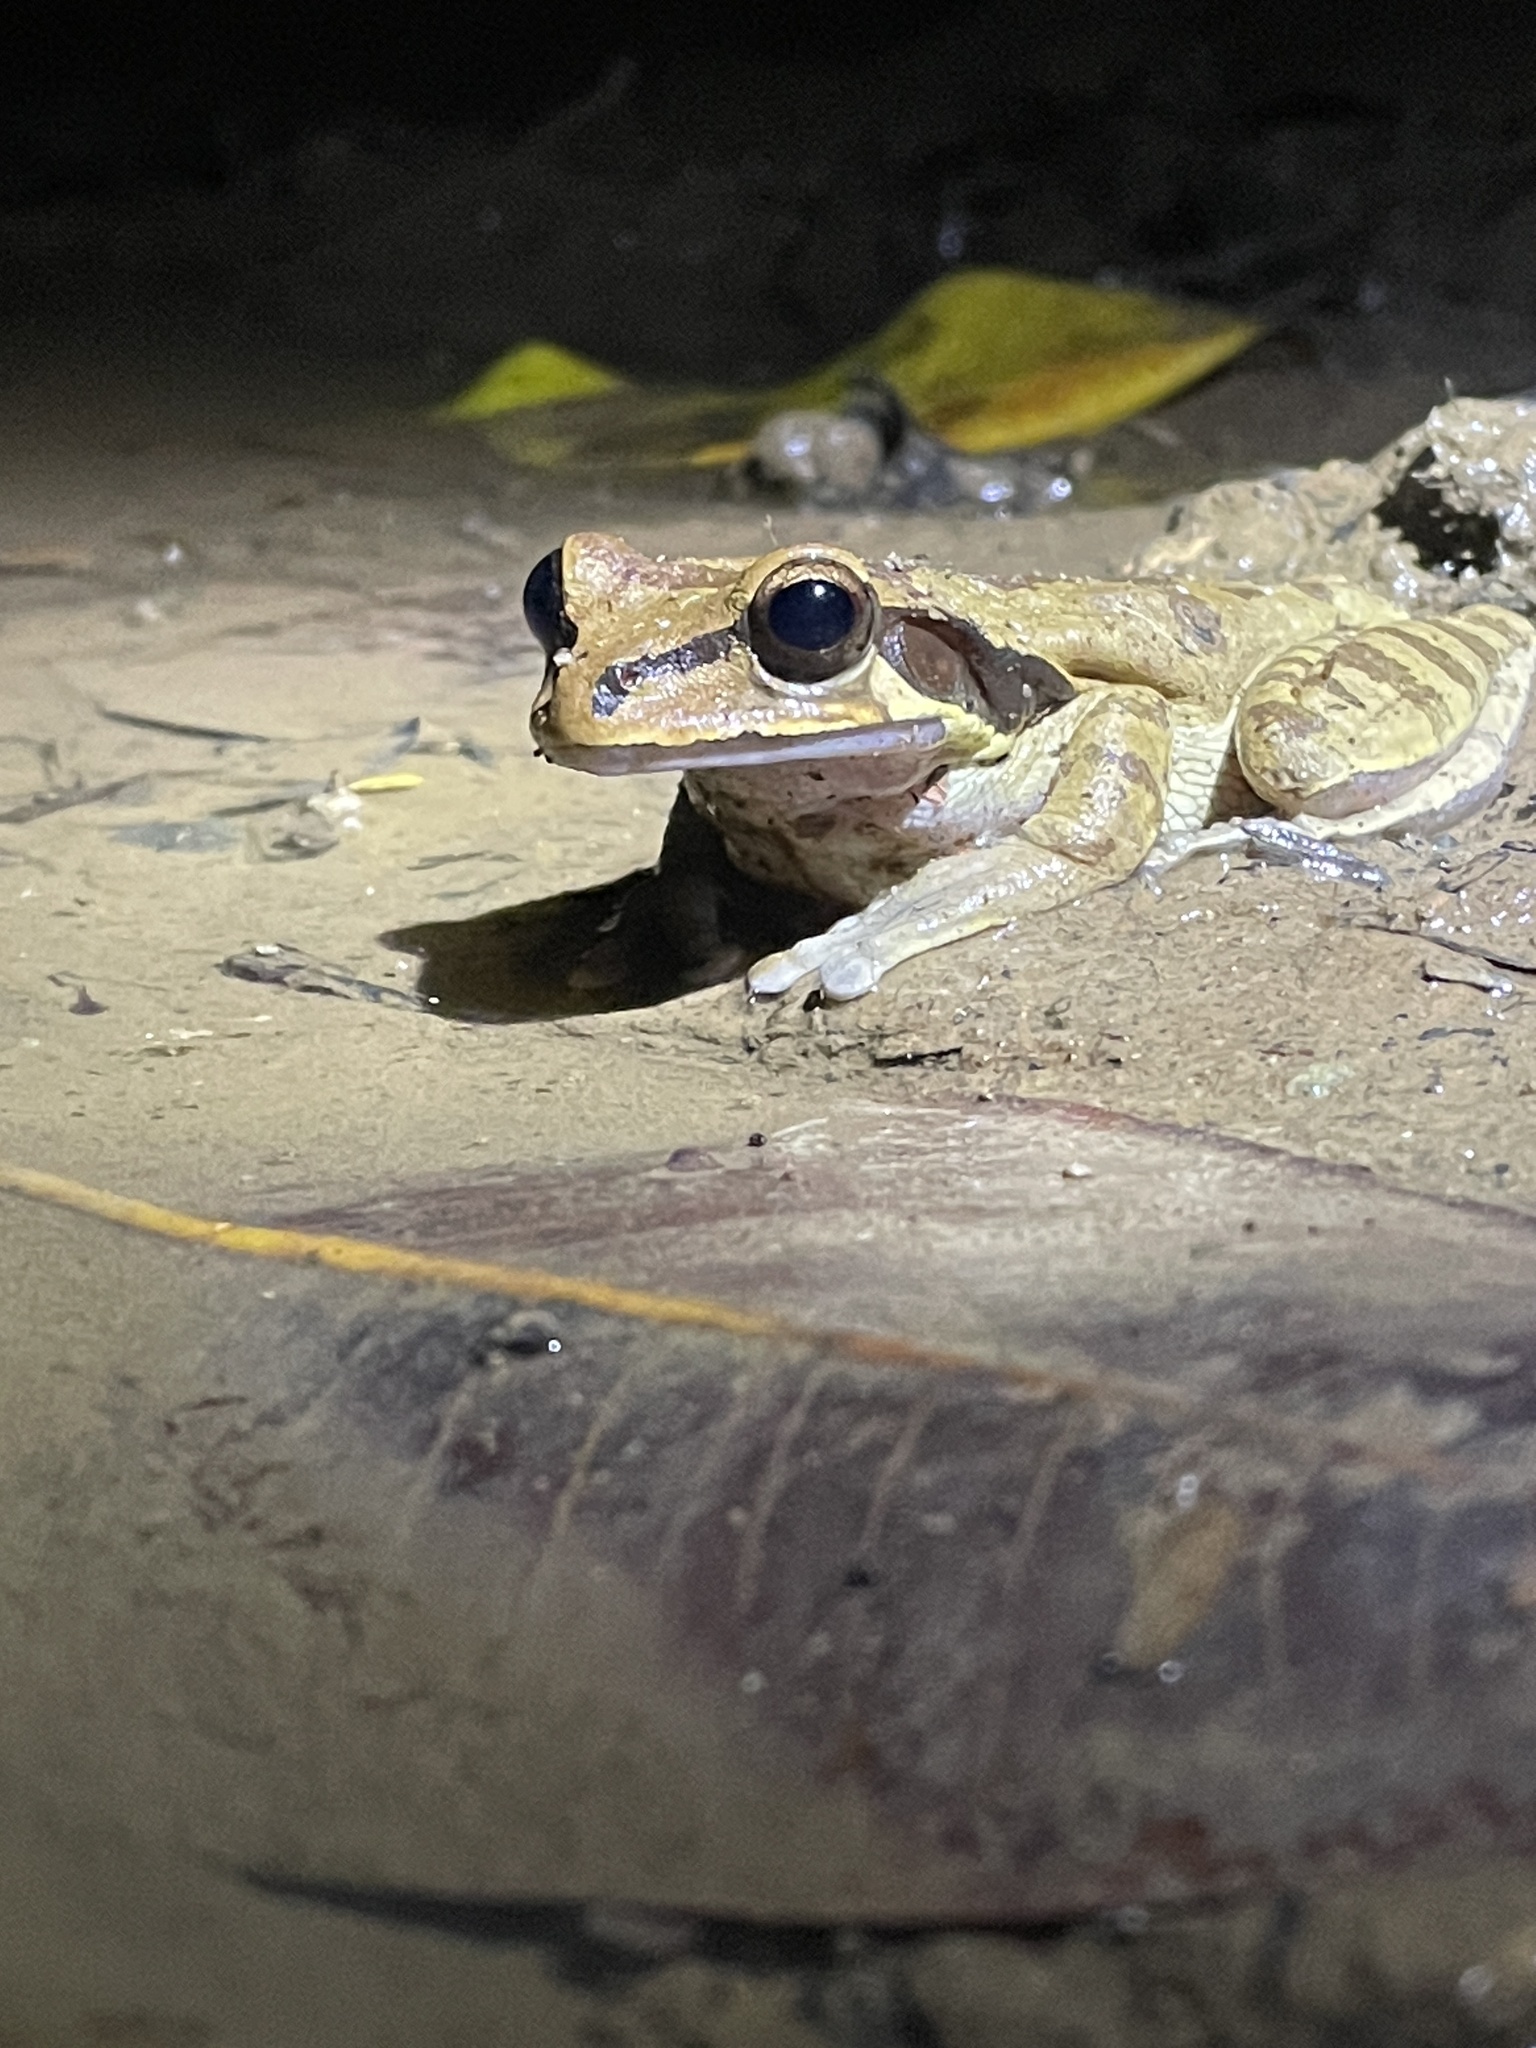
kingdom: Animalia
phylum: Chordata
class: Amphibia
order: Anura
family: Hylidae
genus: Smilisca
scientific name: Smilisca phaeota
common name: Central american smilisca
